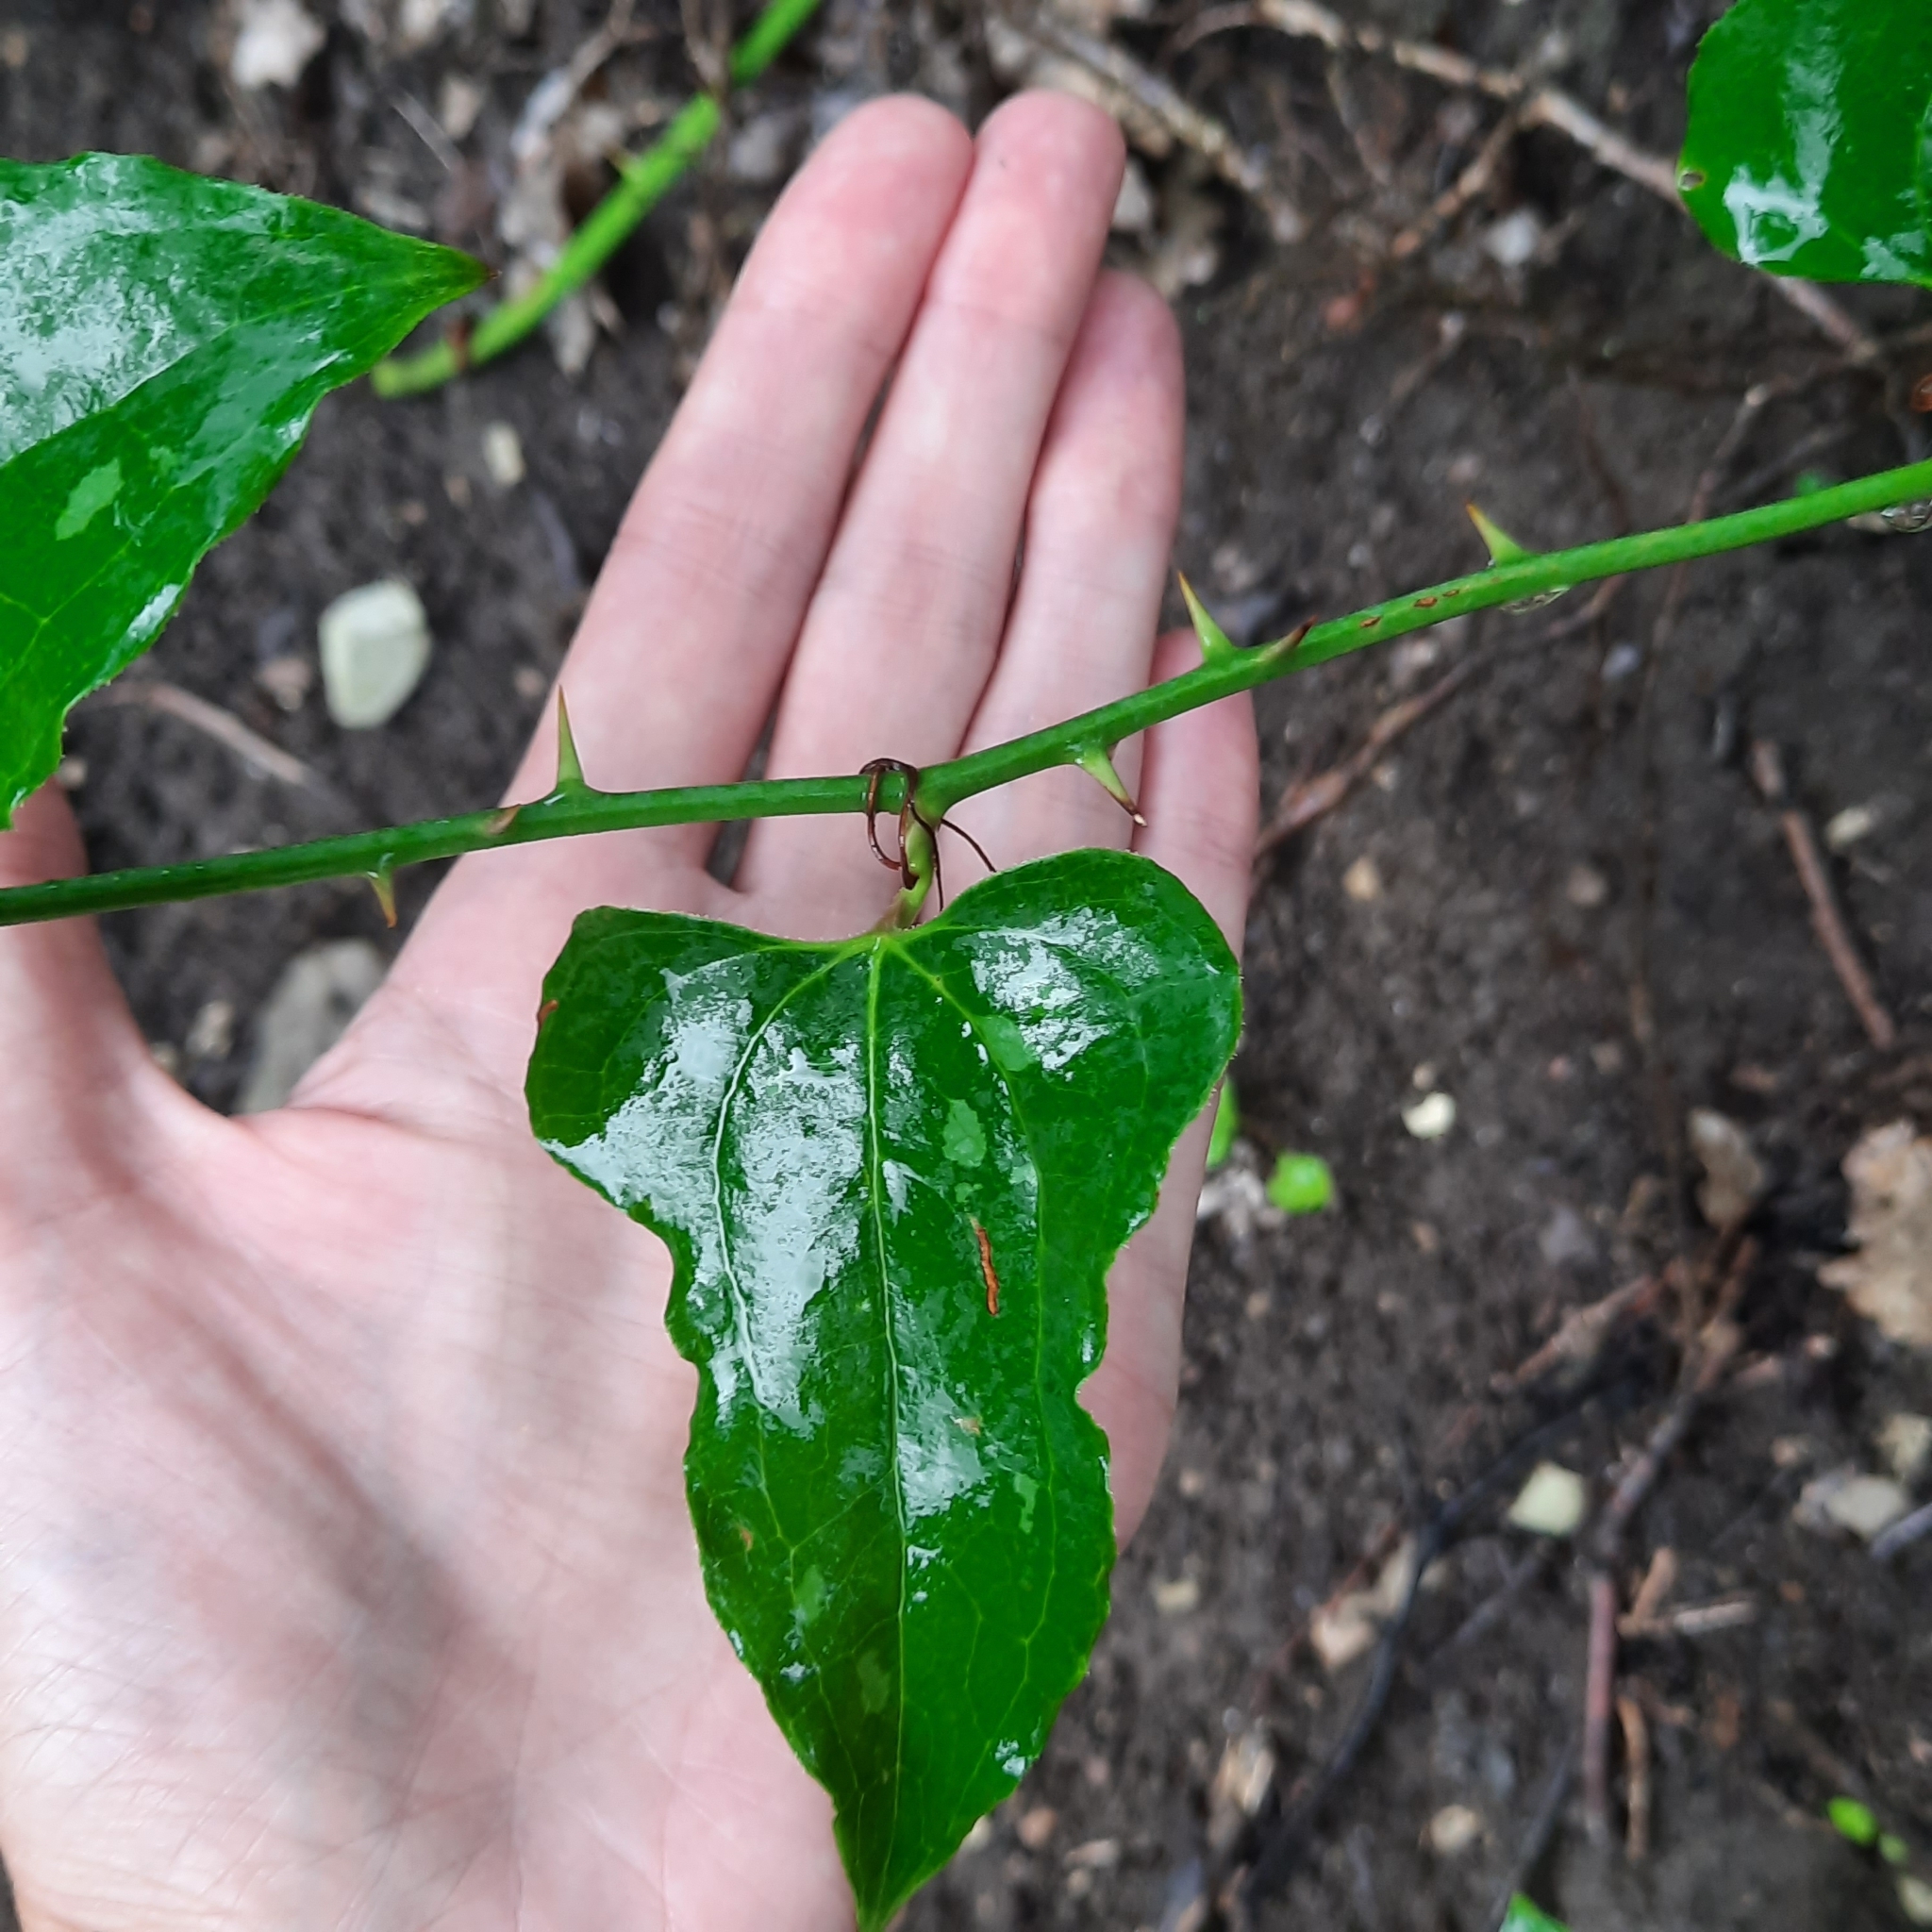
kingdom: Plantae
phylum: Tracheophyta
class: Liliopsida
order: Liliales
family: Smilacaceae
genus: Smilax
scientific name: Smilax excelsa
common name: Larger smilax
